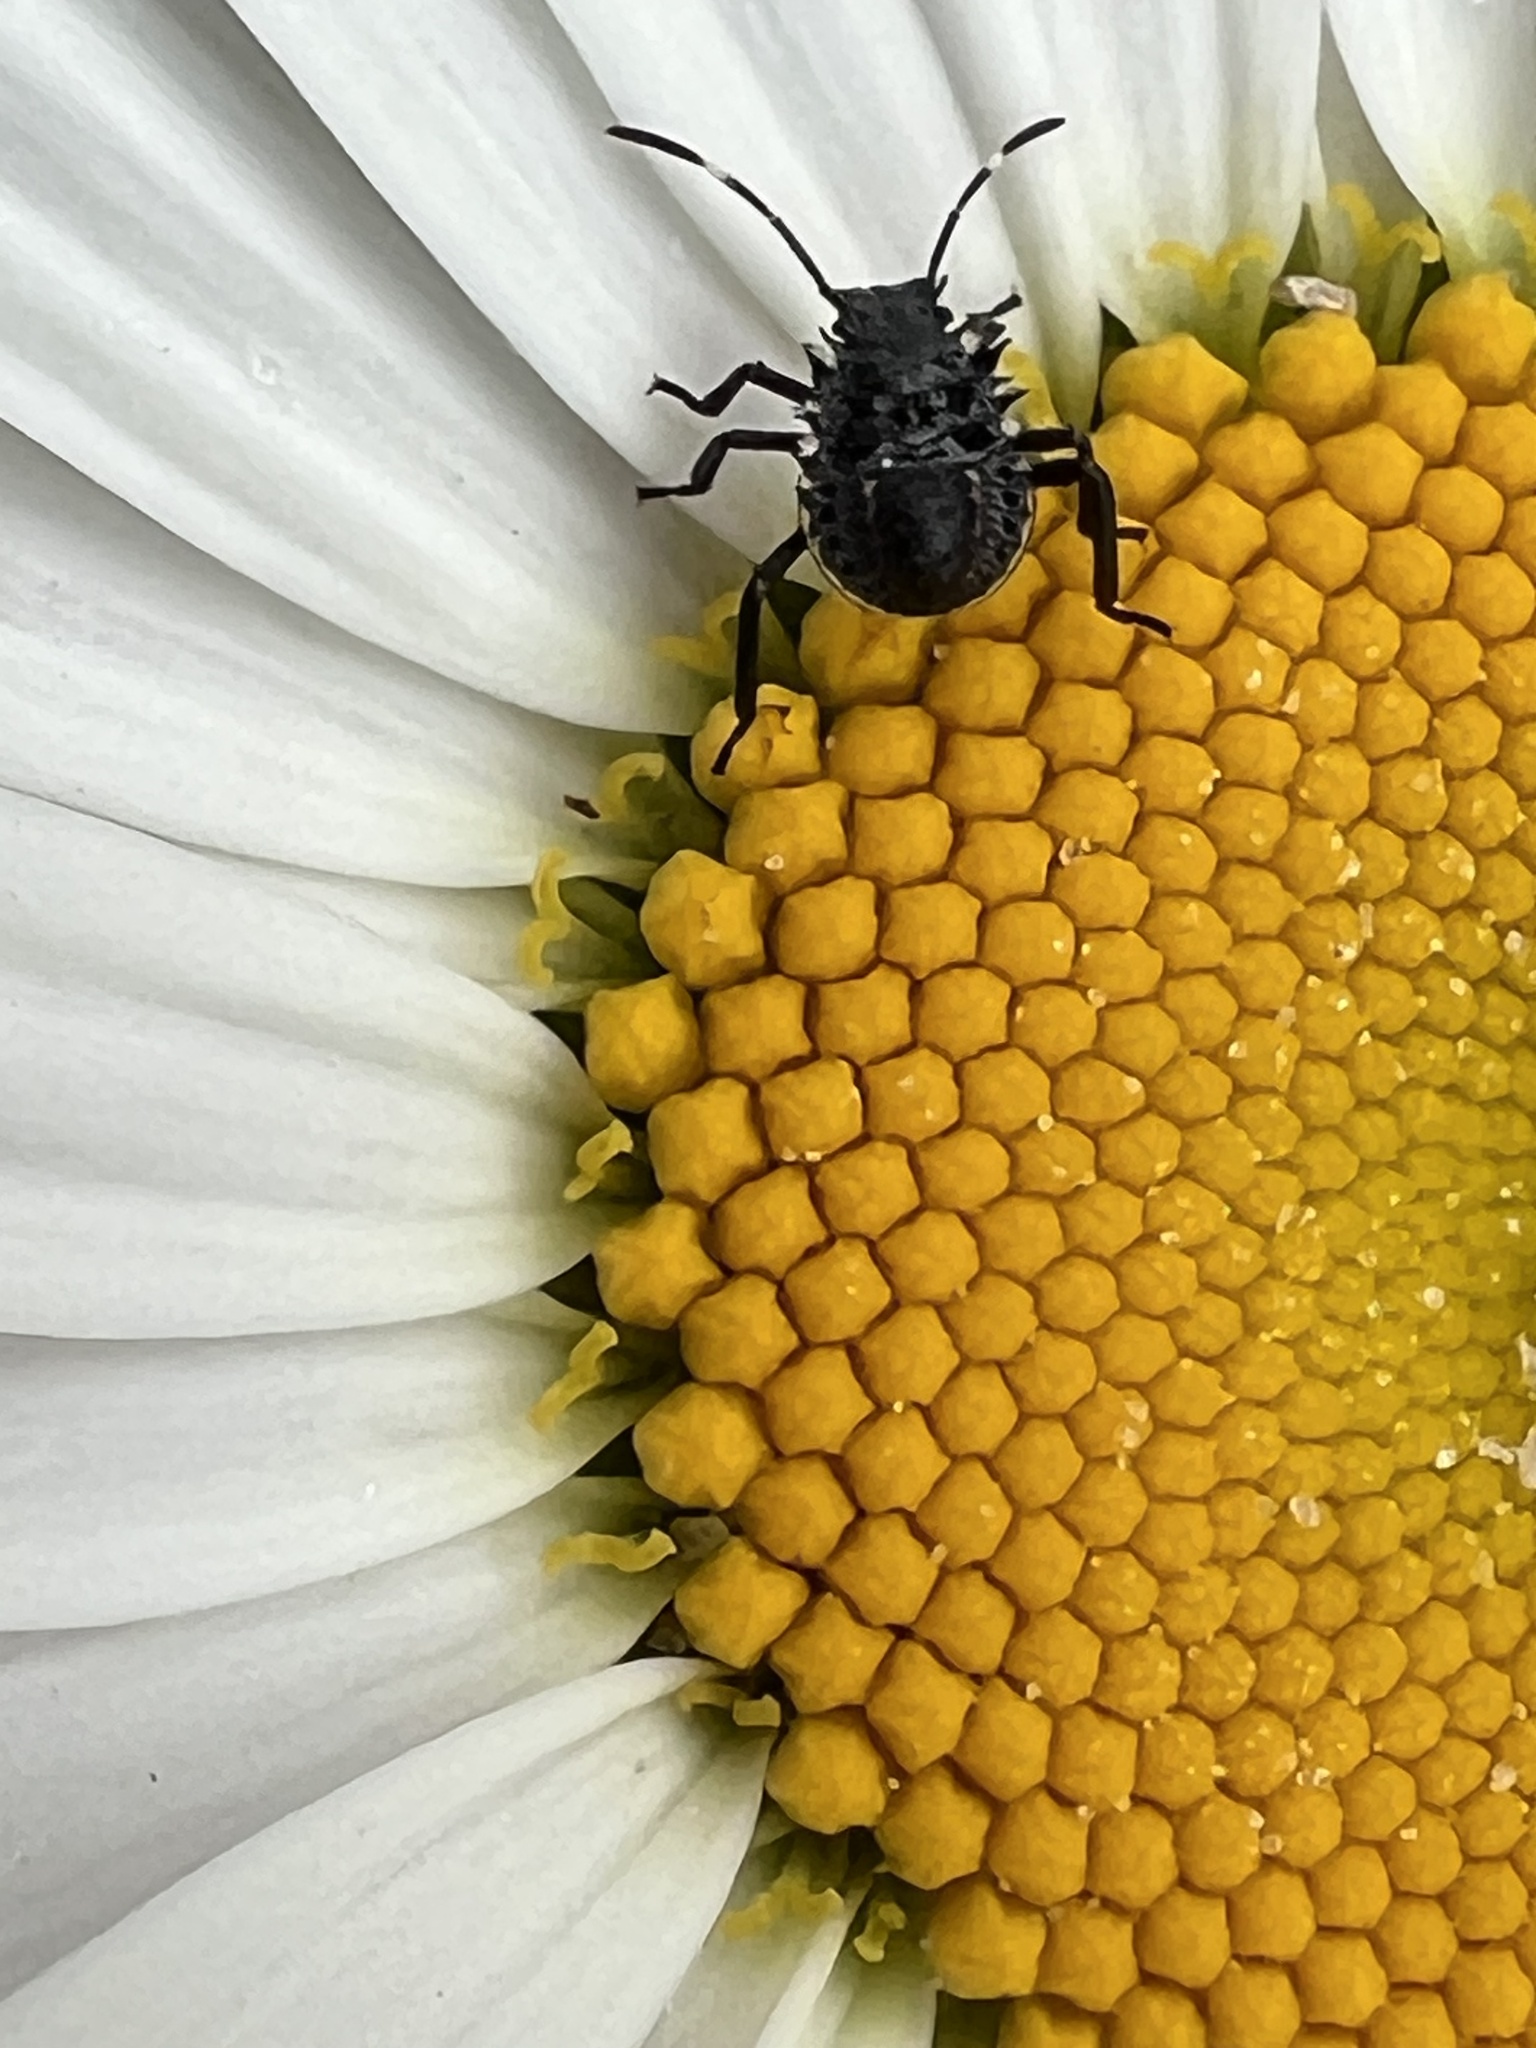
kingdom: Animalia
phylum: Arthropoda
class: Insecta
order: Hemiptera
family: Pentatomidae
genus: Halyomorpha
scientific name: Halyomorpha halys
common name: Brown marmorated stink bug
